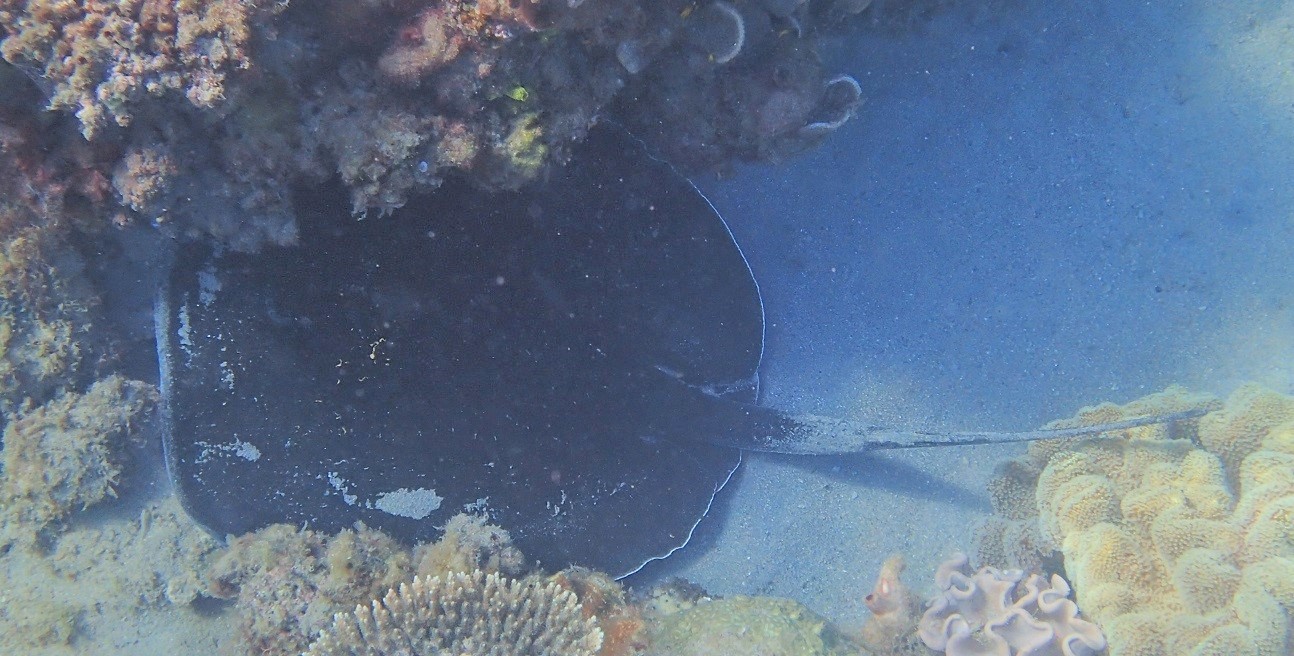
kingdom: Animalia
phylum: Chordata
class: Elasmobranchii
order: Myliobatiformes
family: Dasyatidae
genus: Taeniurops
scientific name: Taeniurops meyeni
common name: Black-blotched stingray
